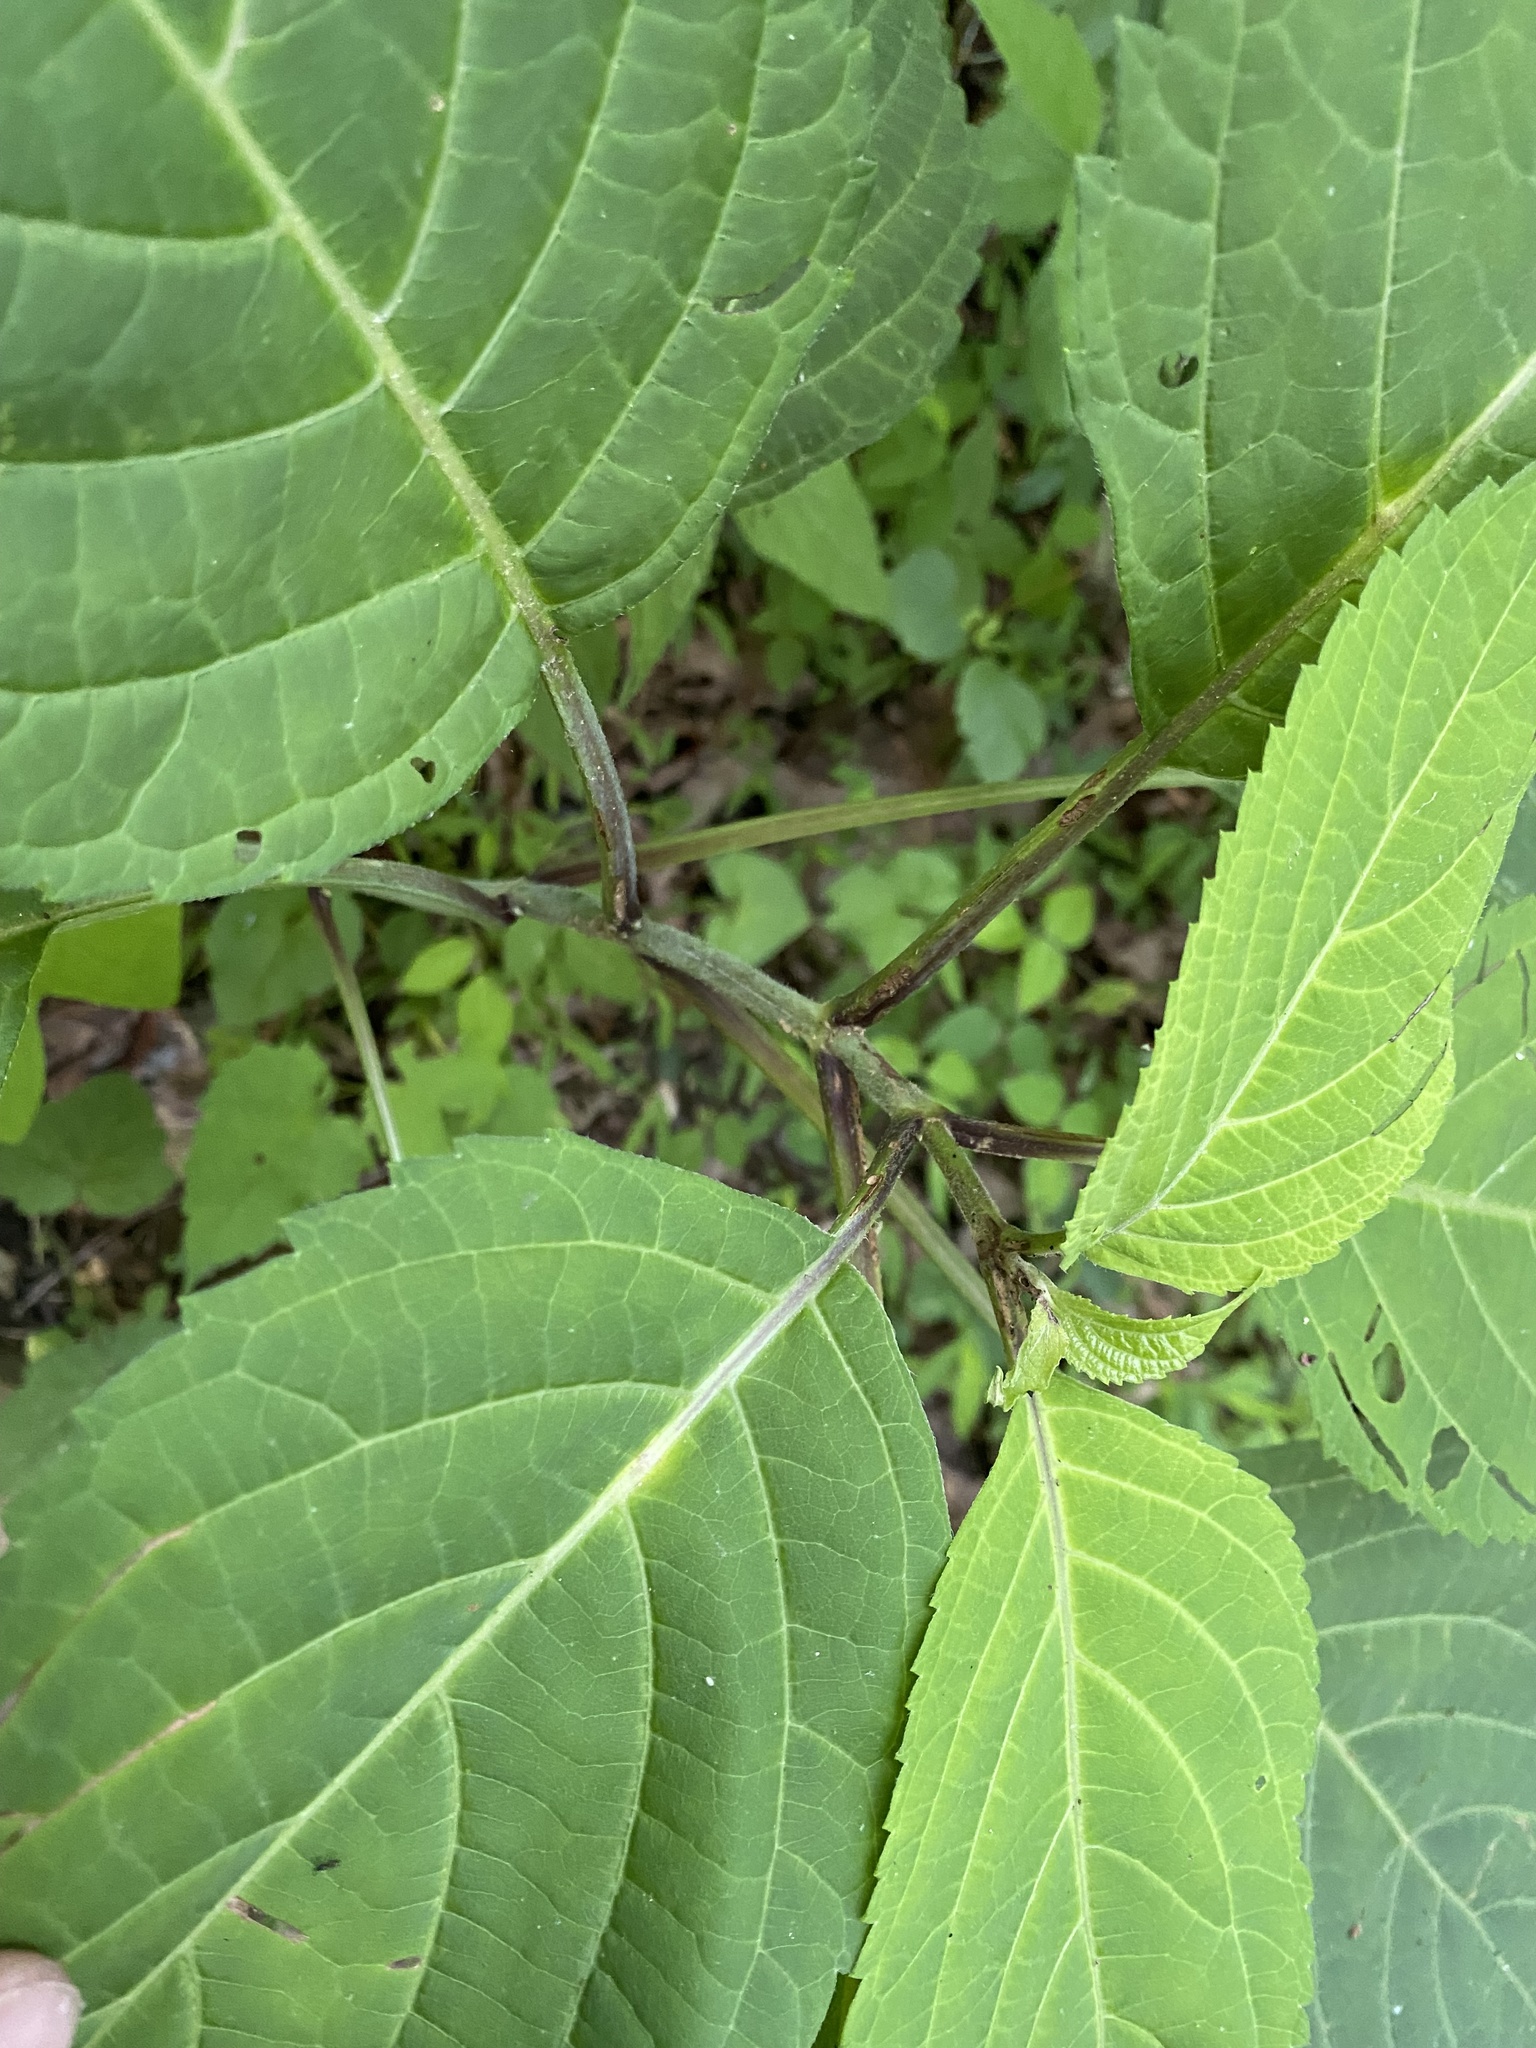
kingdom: Plantae
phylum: Tracheophyta
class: Magnoliopsida
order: Lamiales
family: Lamiaceae
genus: Collinsonia
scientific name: Collinsonia canadensis
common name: Northern horsebalm
